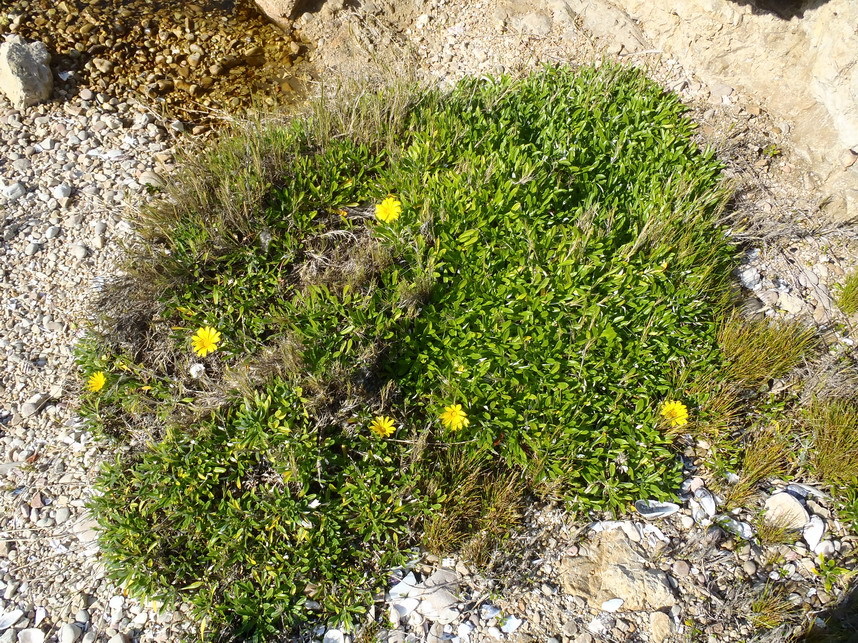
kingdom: Plantae
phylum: Tracheophyta
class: Magnoliopsida
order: Asterales
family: Asteraceae
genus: Gazania
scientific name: Gazania rigens
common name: Treasureflower
